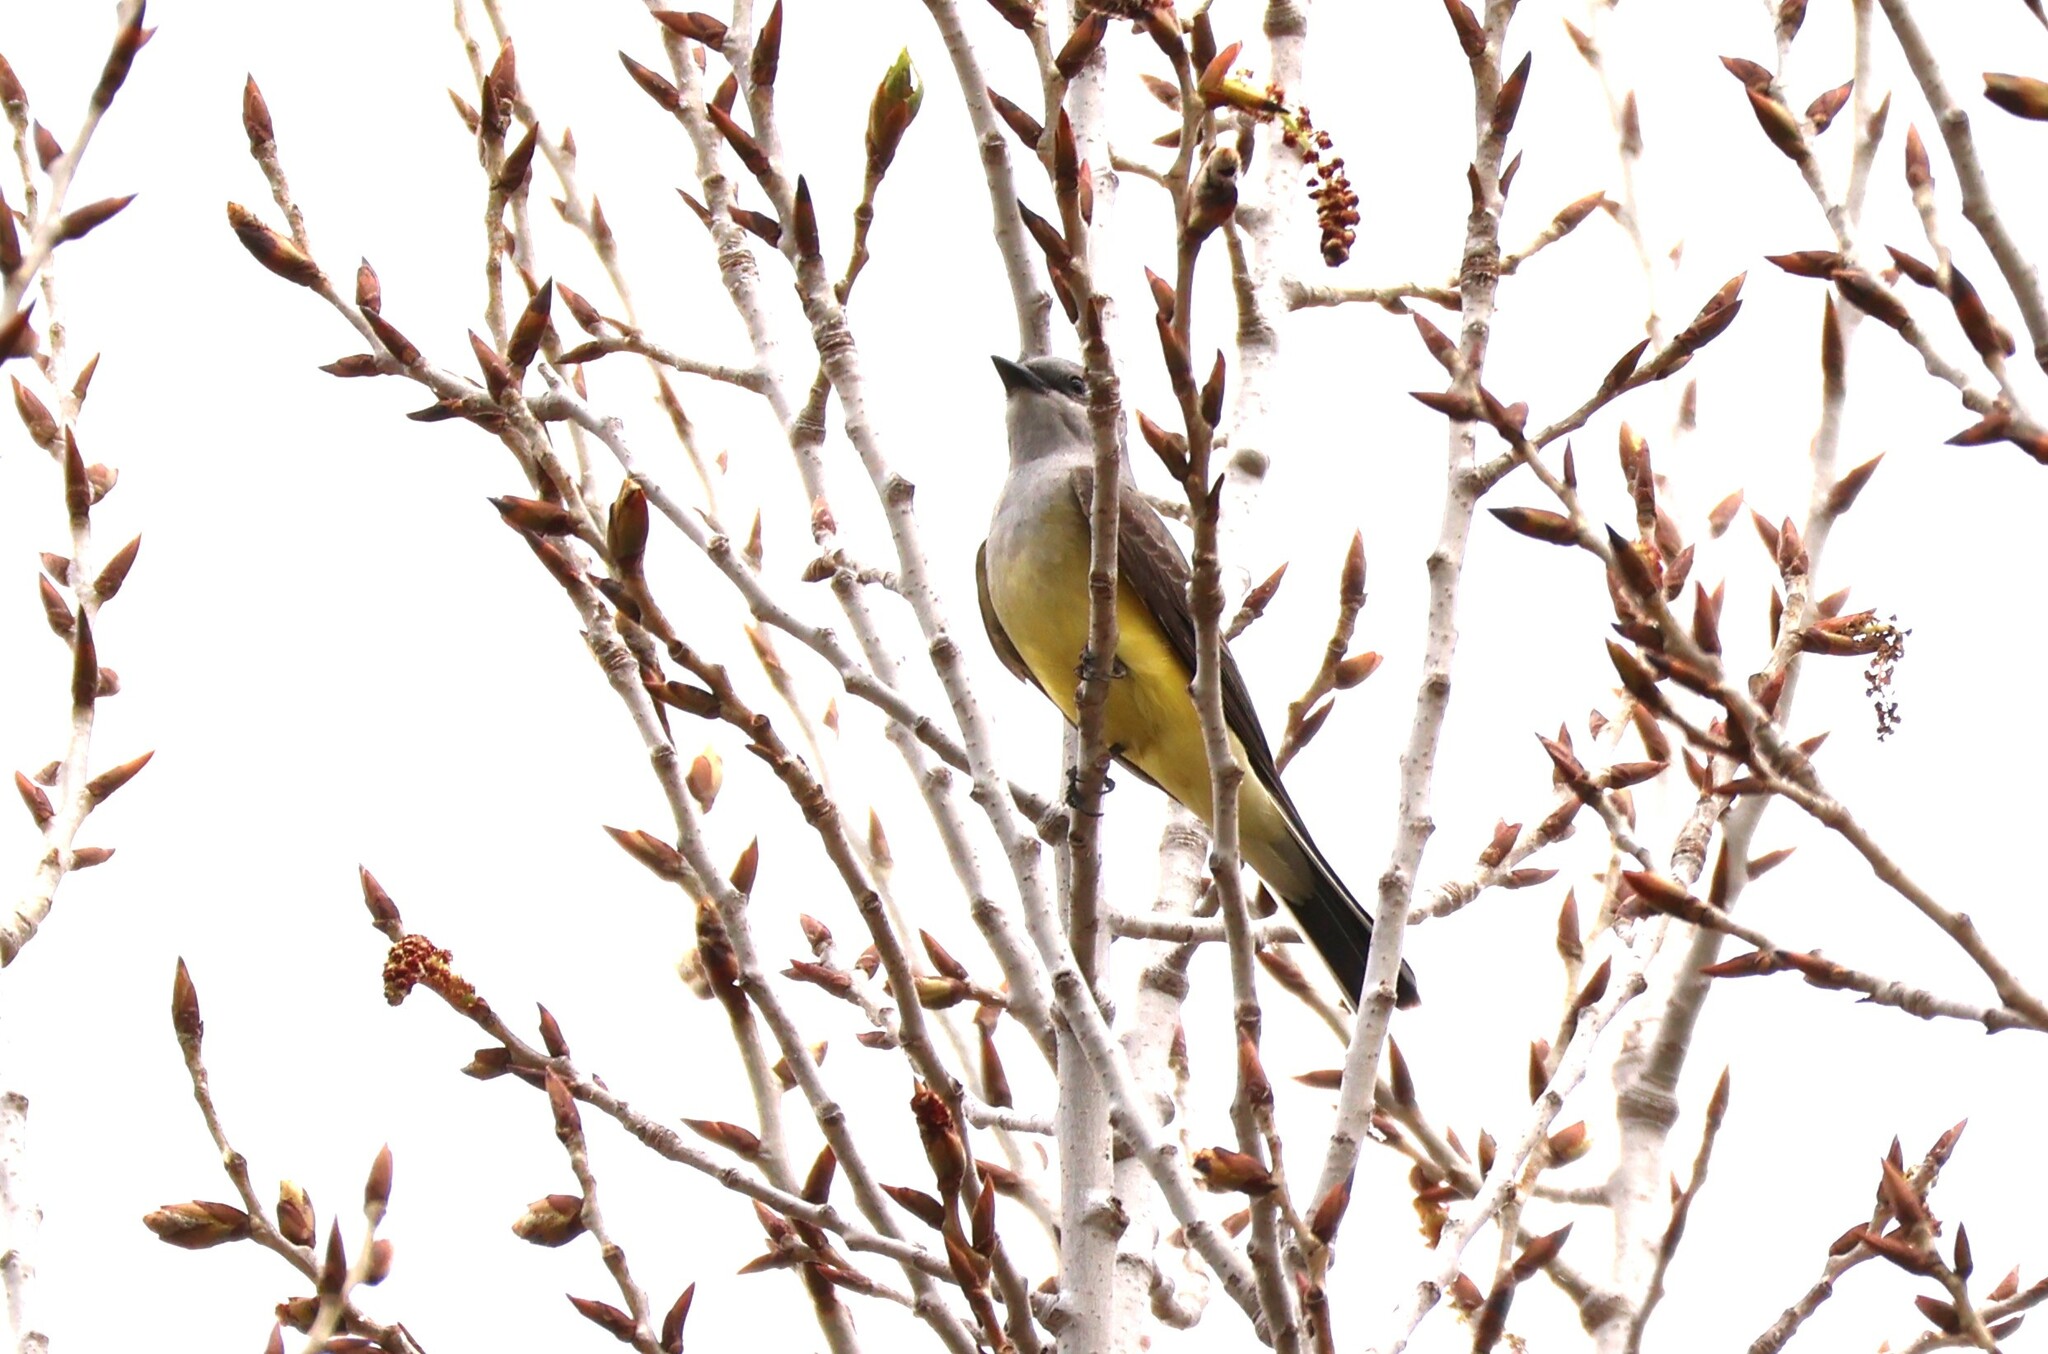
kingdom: Animalia
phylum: Chordata
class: Aves
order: Passeriformes
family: Tyrannidae
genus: Tyrannus
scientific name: Tyrannus verticalis
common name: Western kingbird
